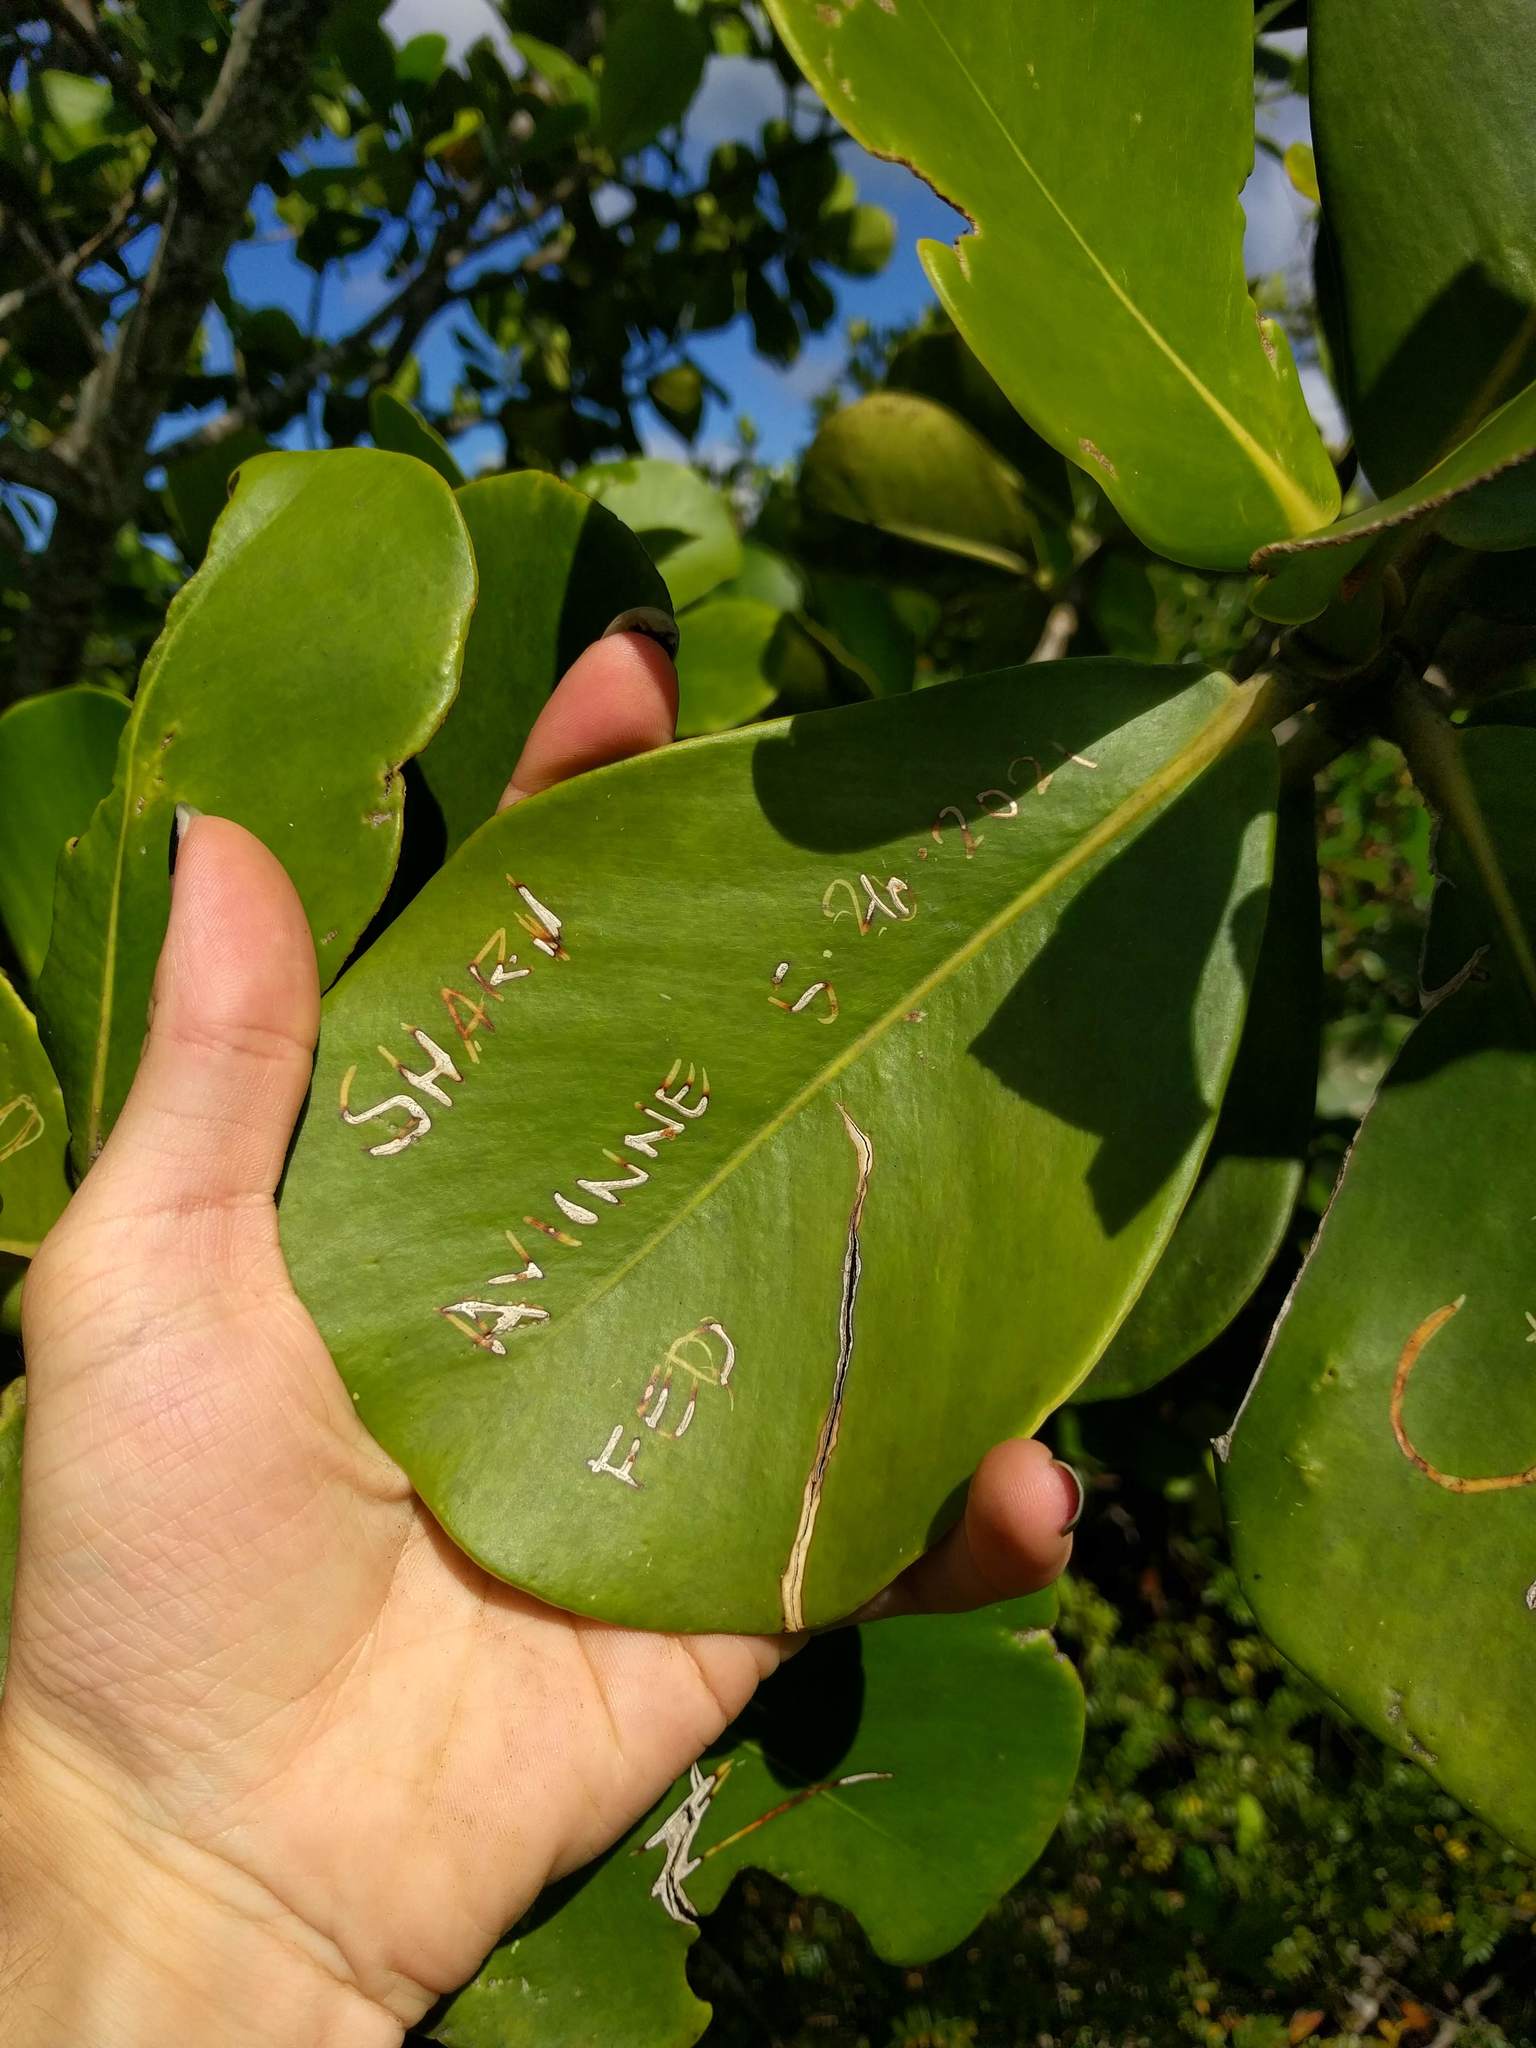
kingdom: Plantae
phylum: Tracheophyta
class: Magnoliopsida
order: Malpighiales
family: Clusiaceae
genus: Clusia
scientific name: Clusia rosea
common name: Scotch attorney
